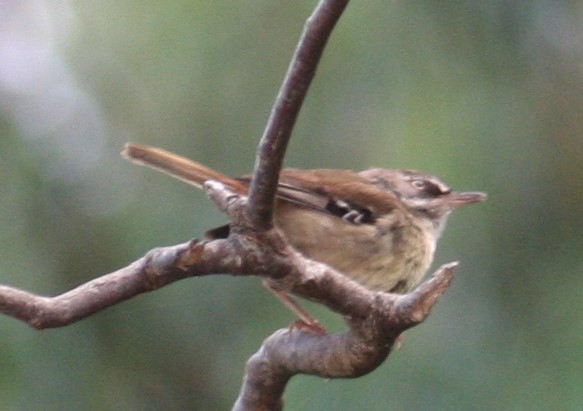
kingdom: Animalia
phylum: Chordata
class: Aves
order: Passeriformes
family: Acanthizidae
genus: Sericornis
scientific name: Sericornis frontalis
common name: White-browed scrubwren
